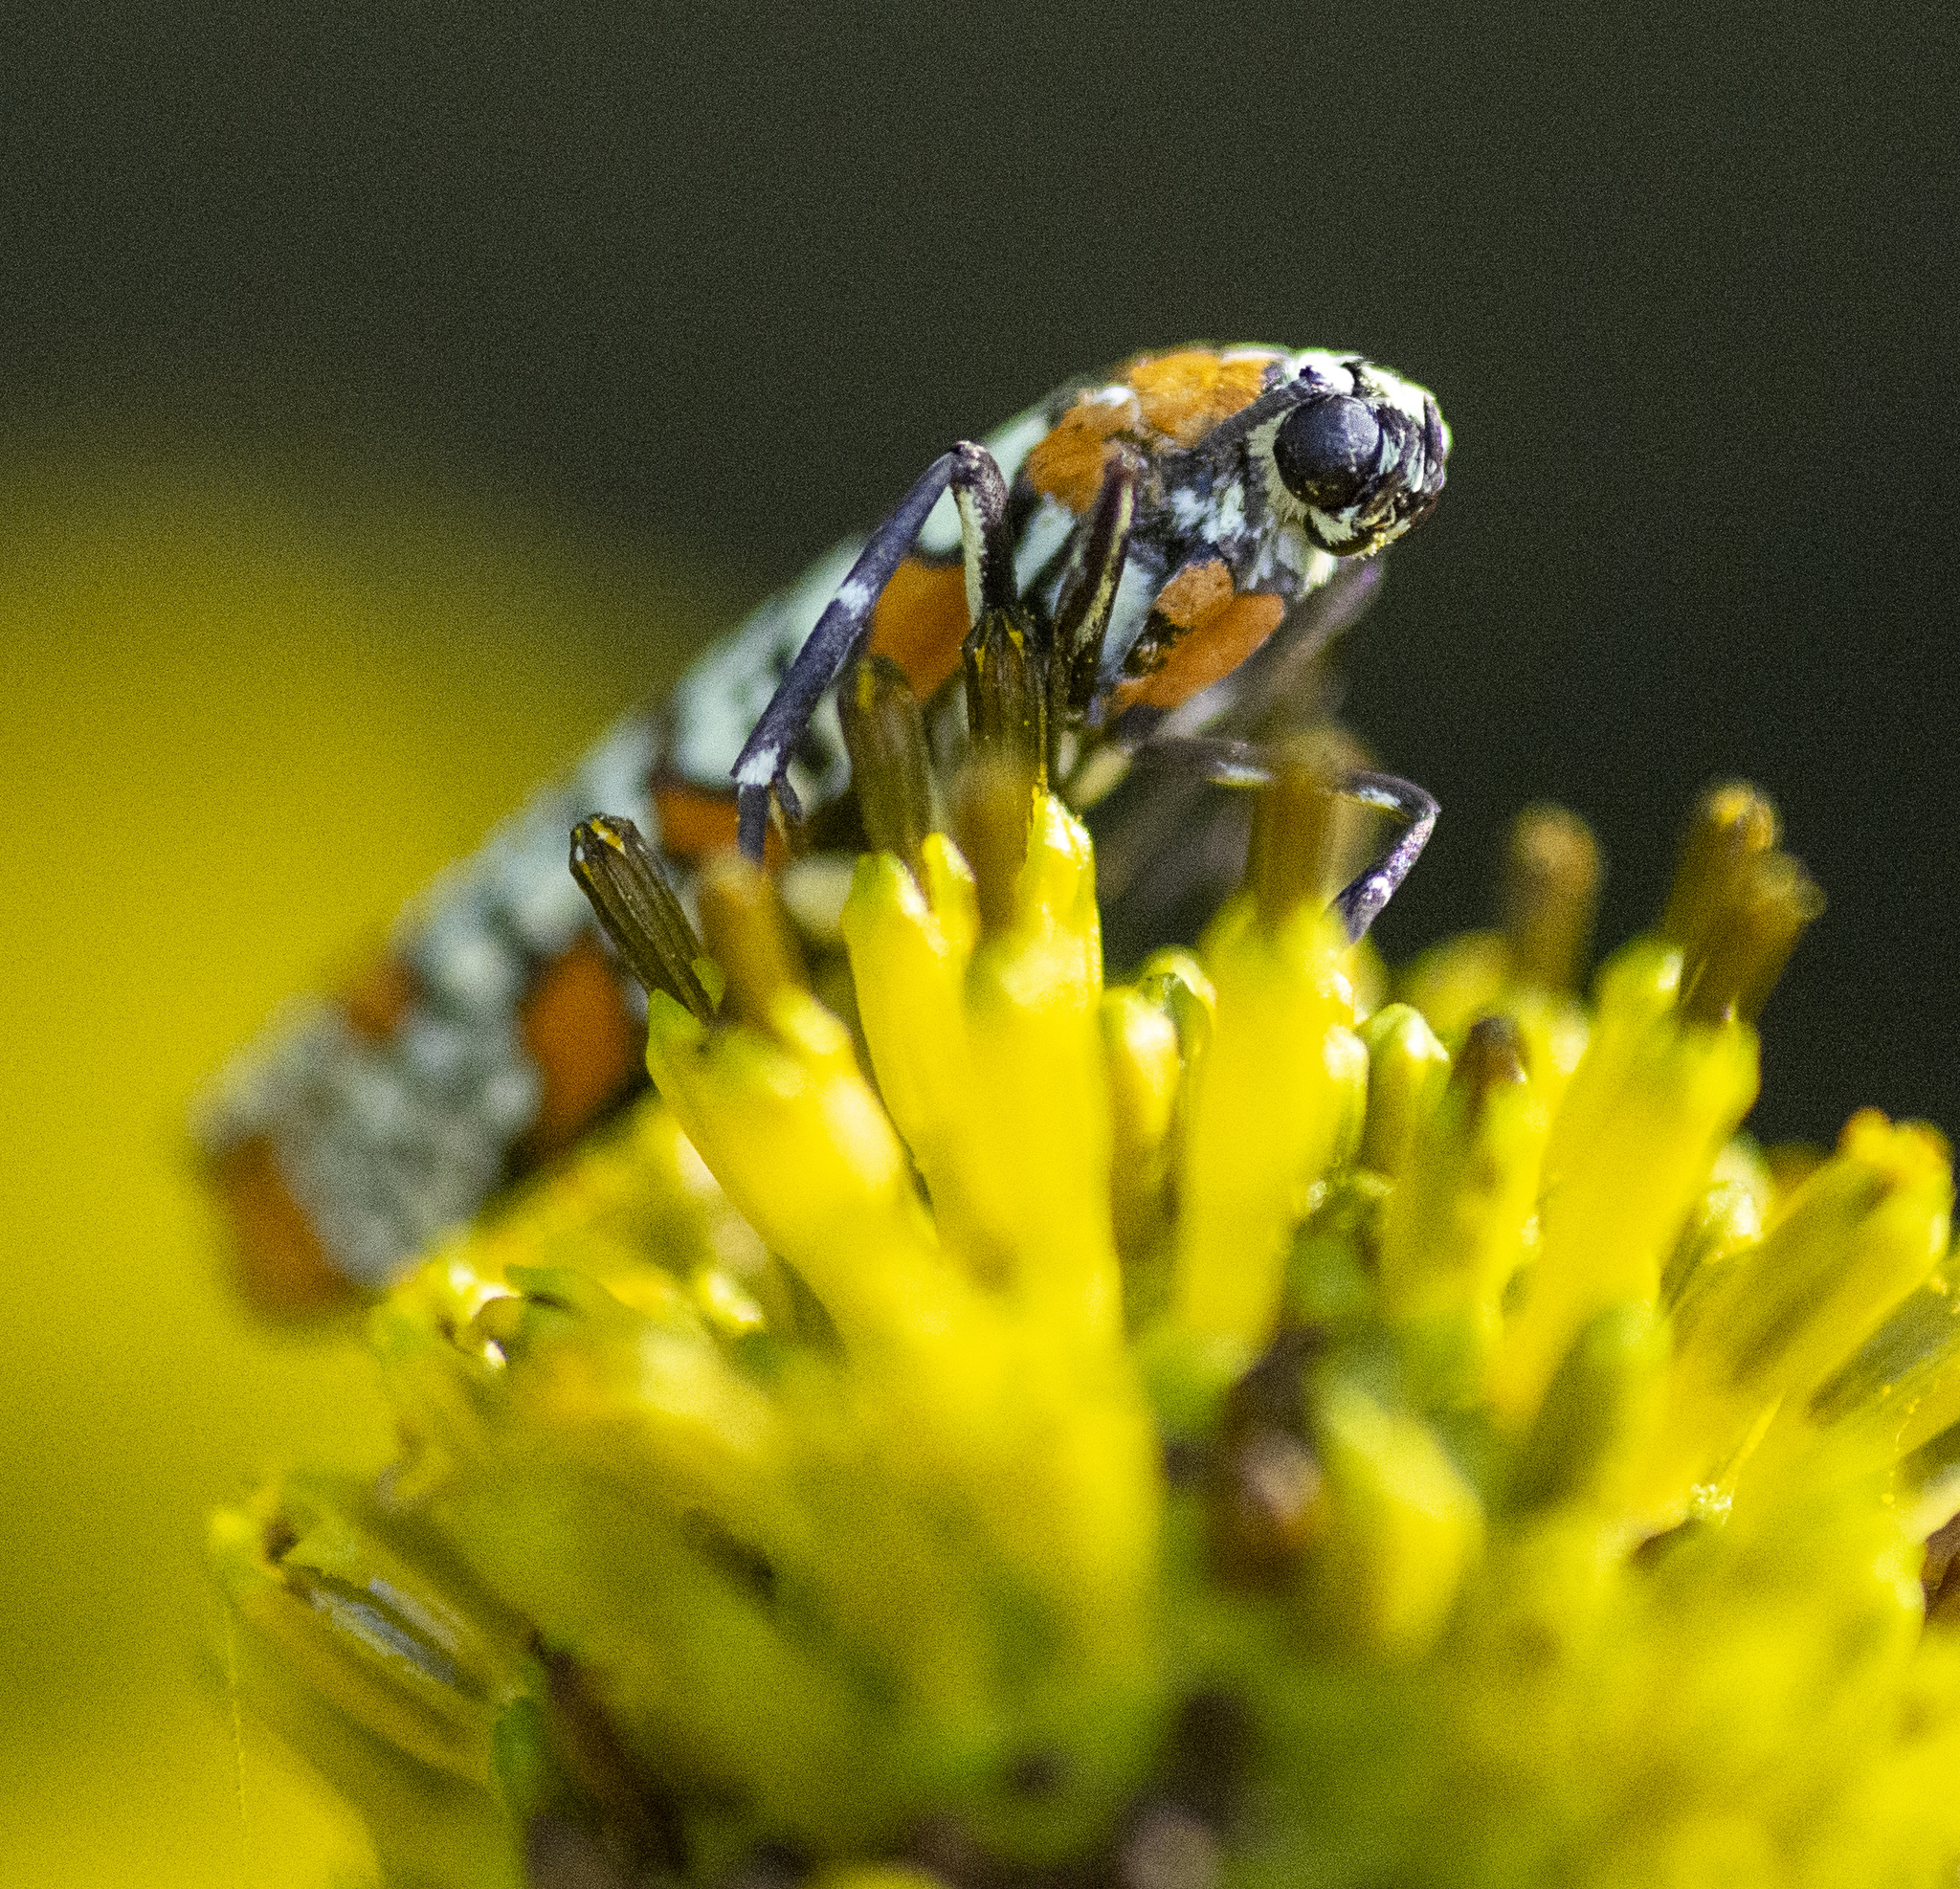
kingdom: Animalia
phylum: Arthropoda
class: Insecta
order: Lepidoptera
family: Attevidae
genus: Atteva
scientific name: Atteva punctella
